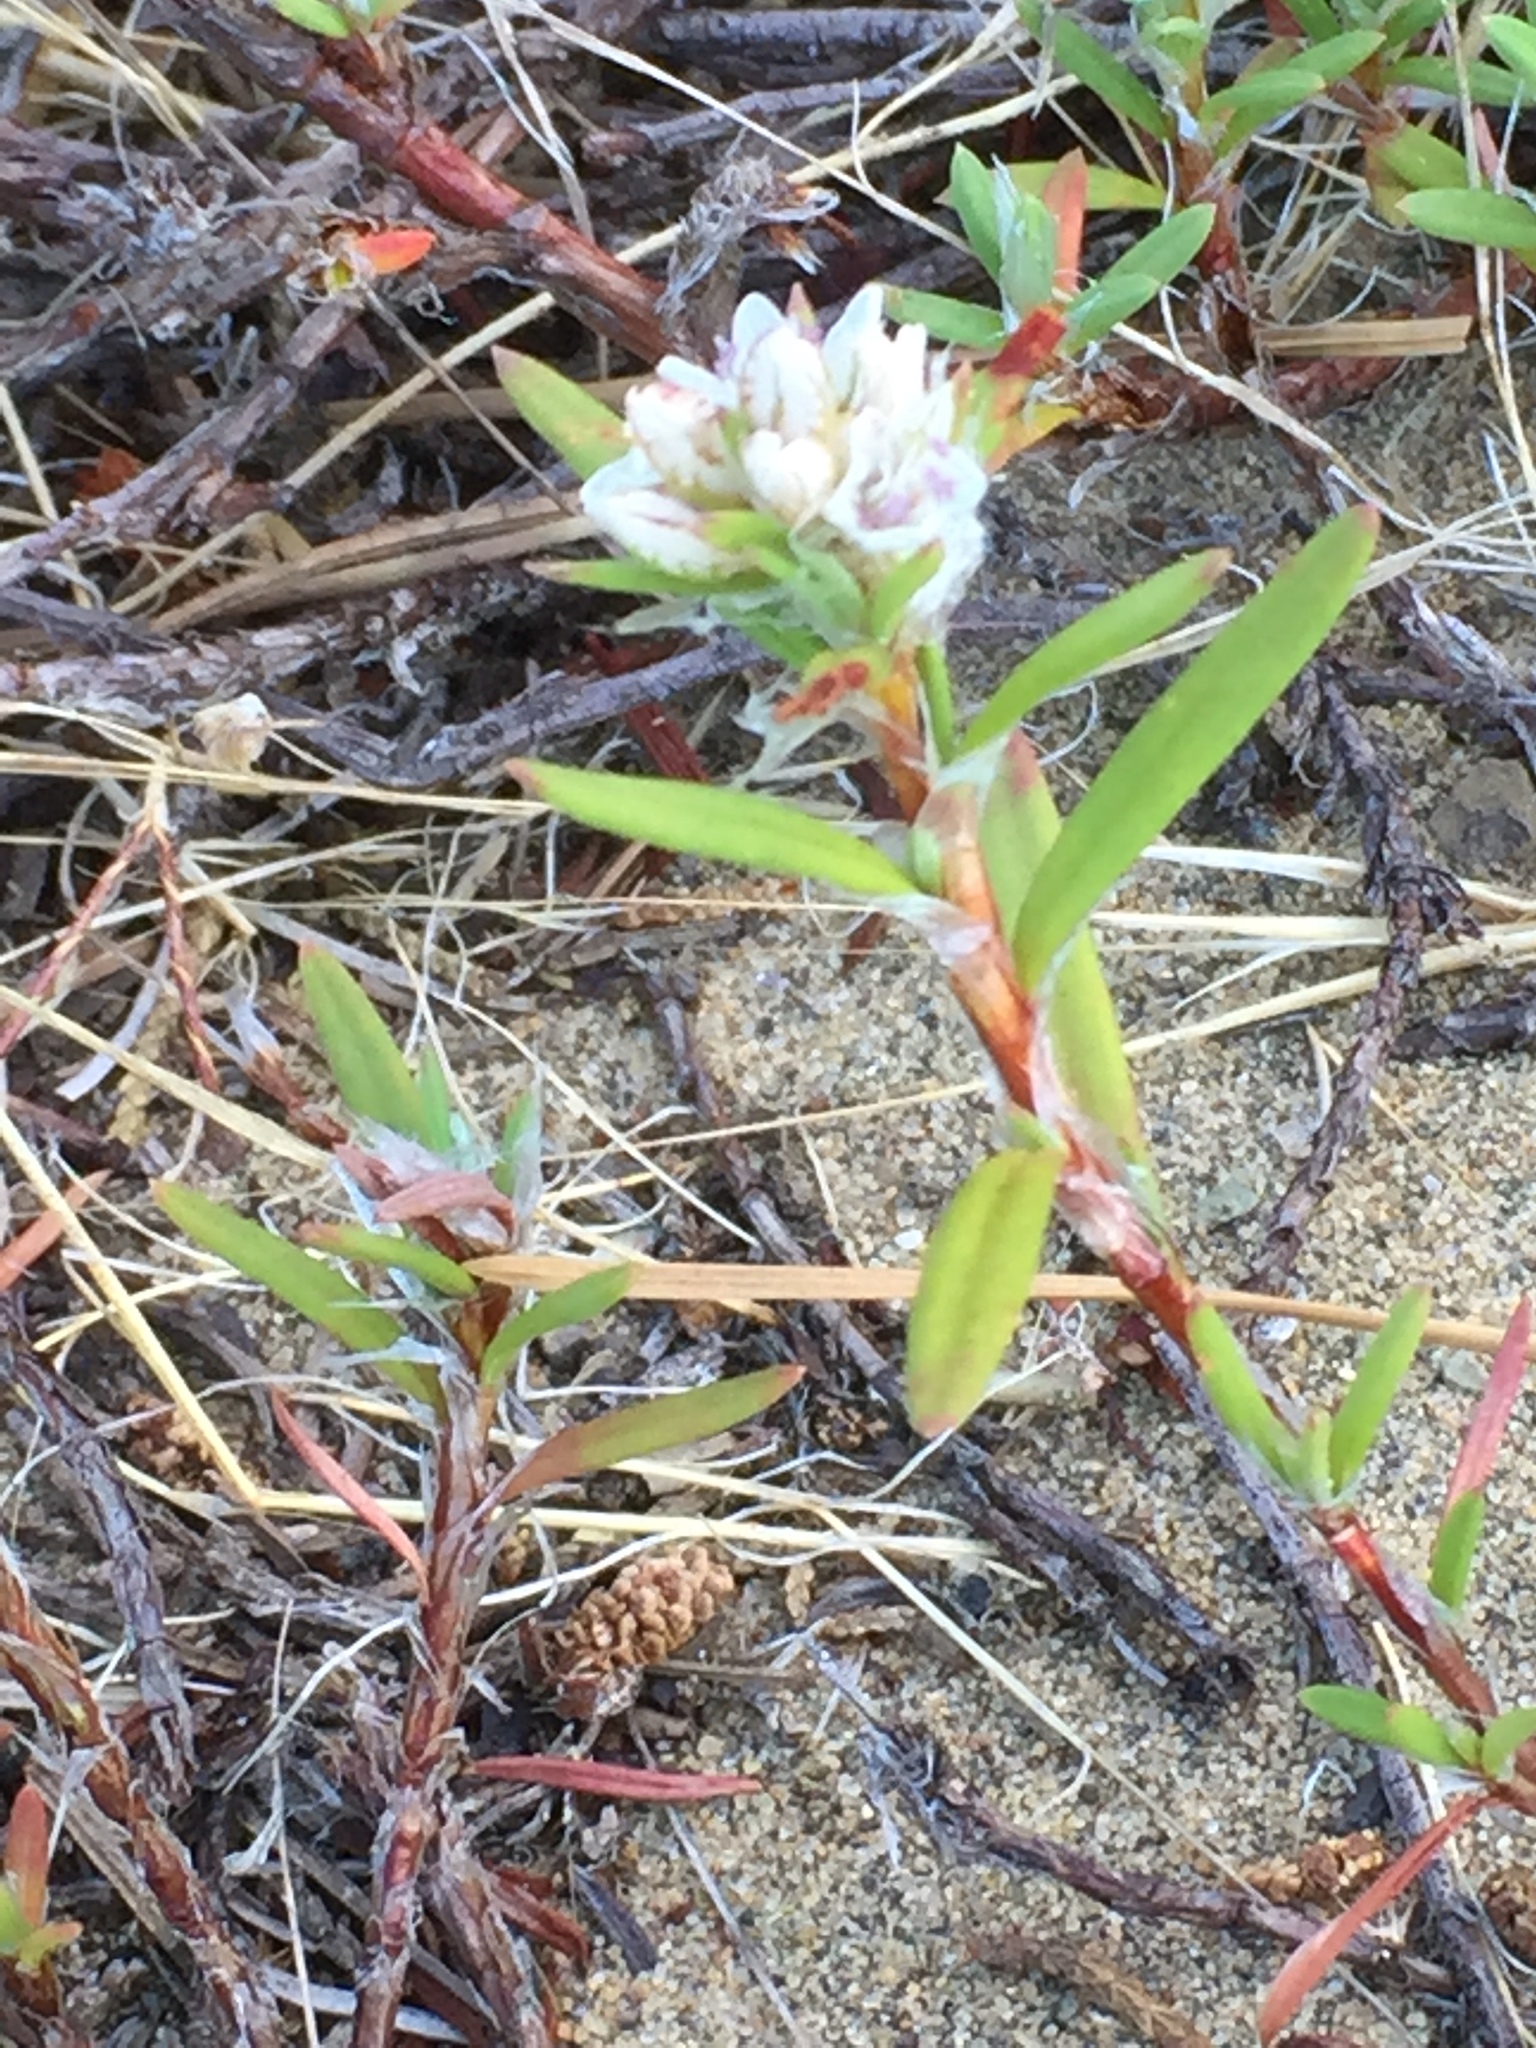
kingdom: Plantae
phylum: Tracheophyta
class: Magnoliopsida
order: Caryophyllales
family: Polygonaceae
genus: Polygonum
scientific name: Polygonum paronychia
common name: Dune knotweed
